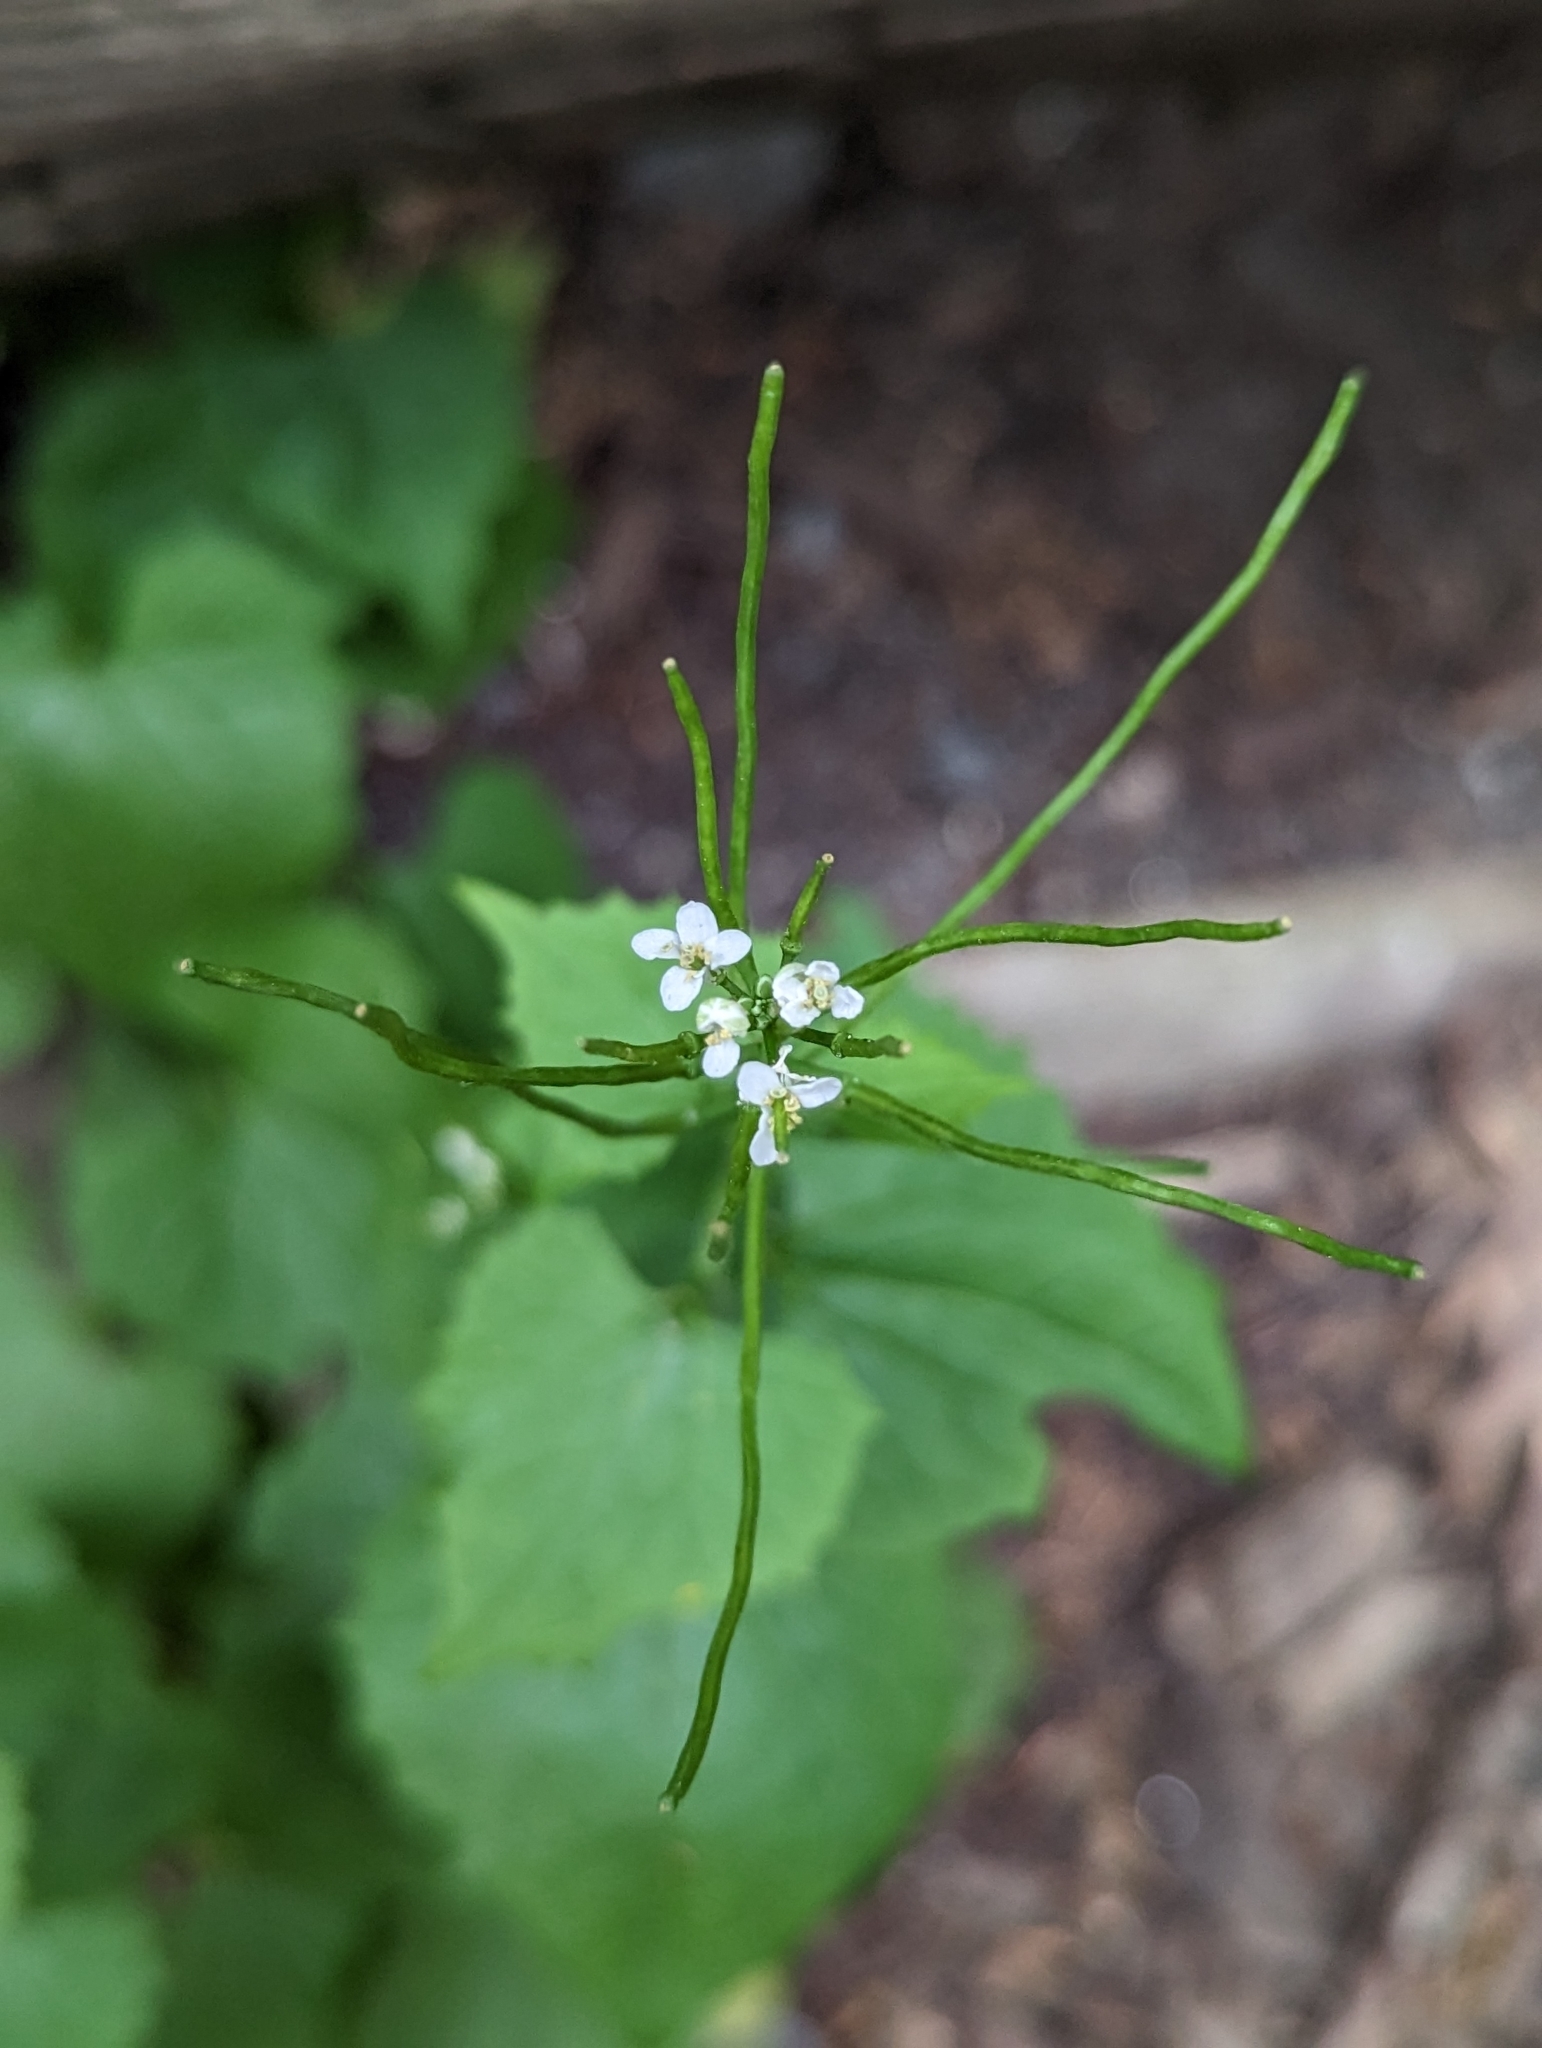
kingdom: Plantae
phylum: Tracheophyta
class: Magnoliopsida
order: Brassicales
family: Brassicaceae
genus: Alliaria
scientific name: Alliaria petiolata
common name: Garlic mustard
